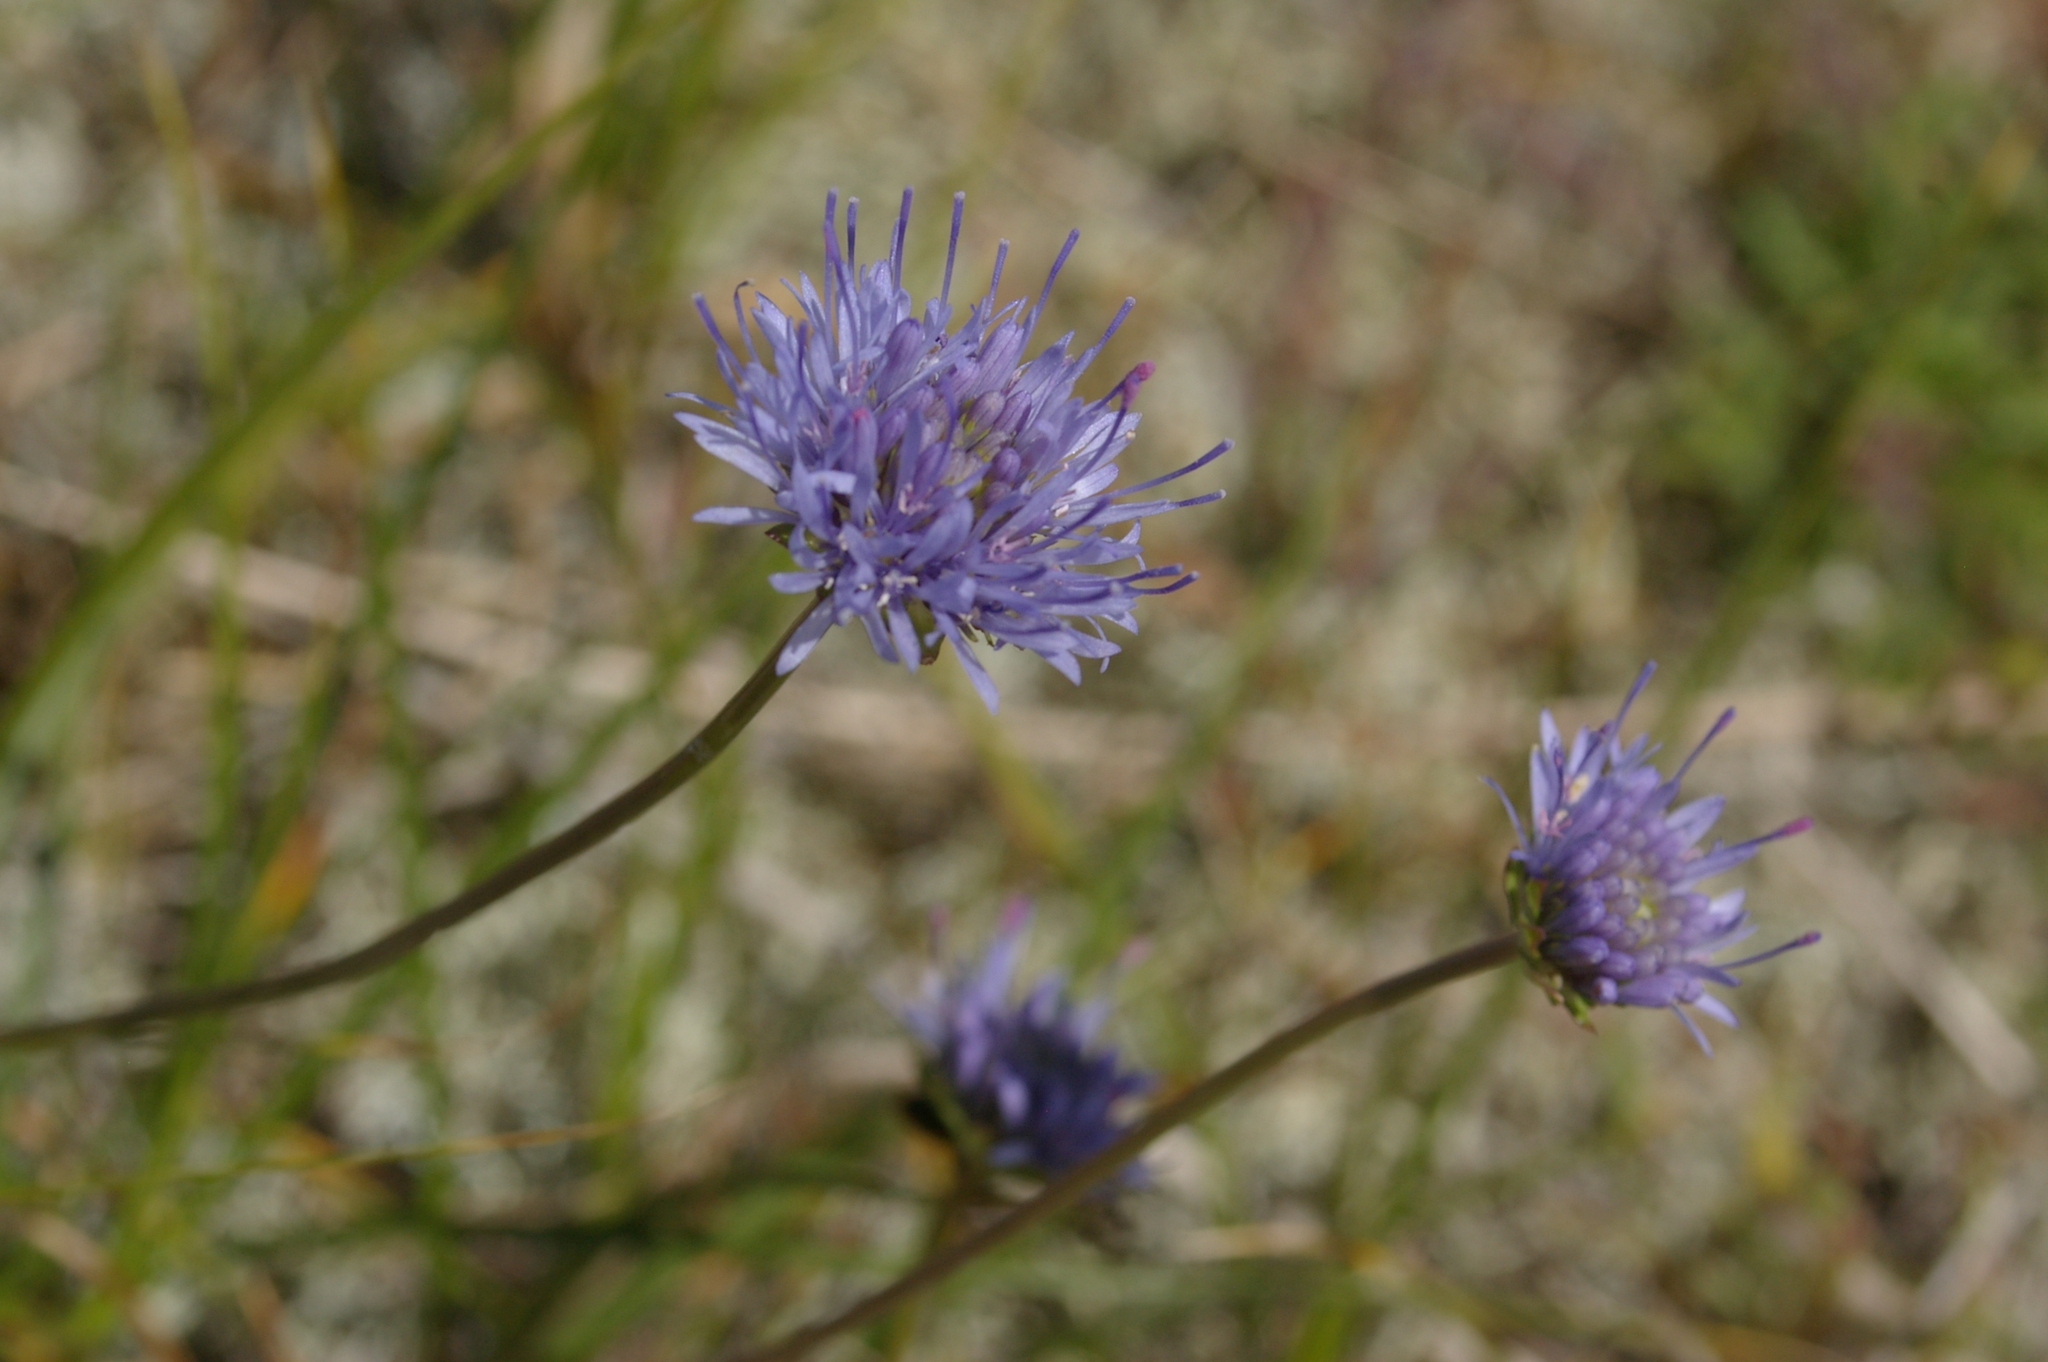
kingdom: Plantae
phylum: Tracheophyta
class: Magnoliopsida
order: Asterales
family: Campanulaceae
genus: Jasione
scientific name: Jasione montana
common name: Sheep's-bit
